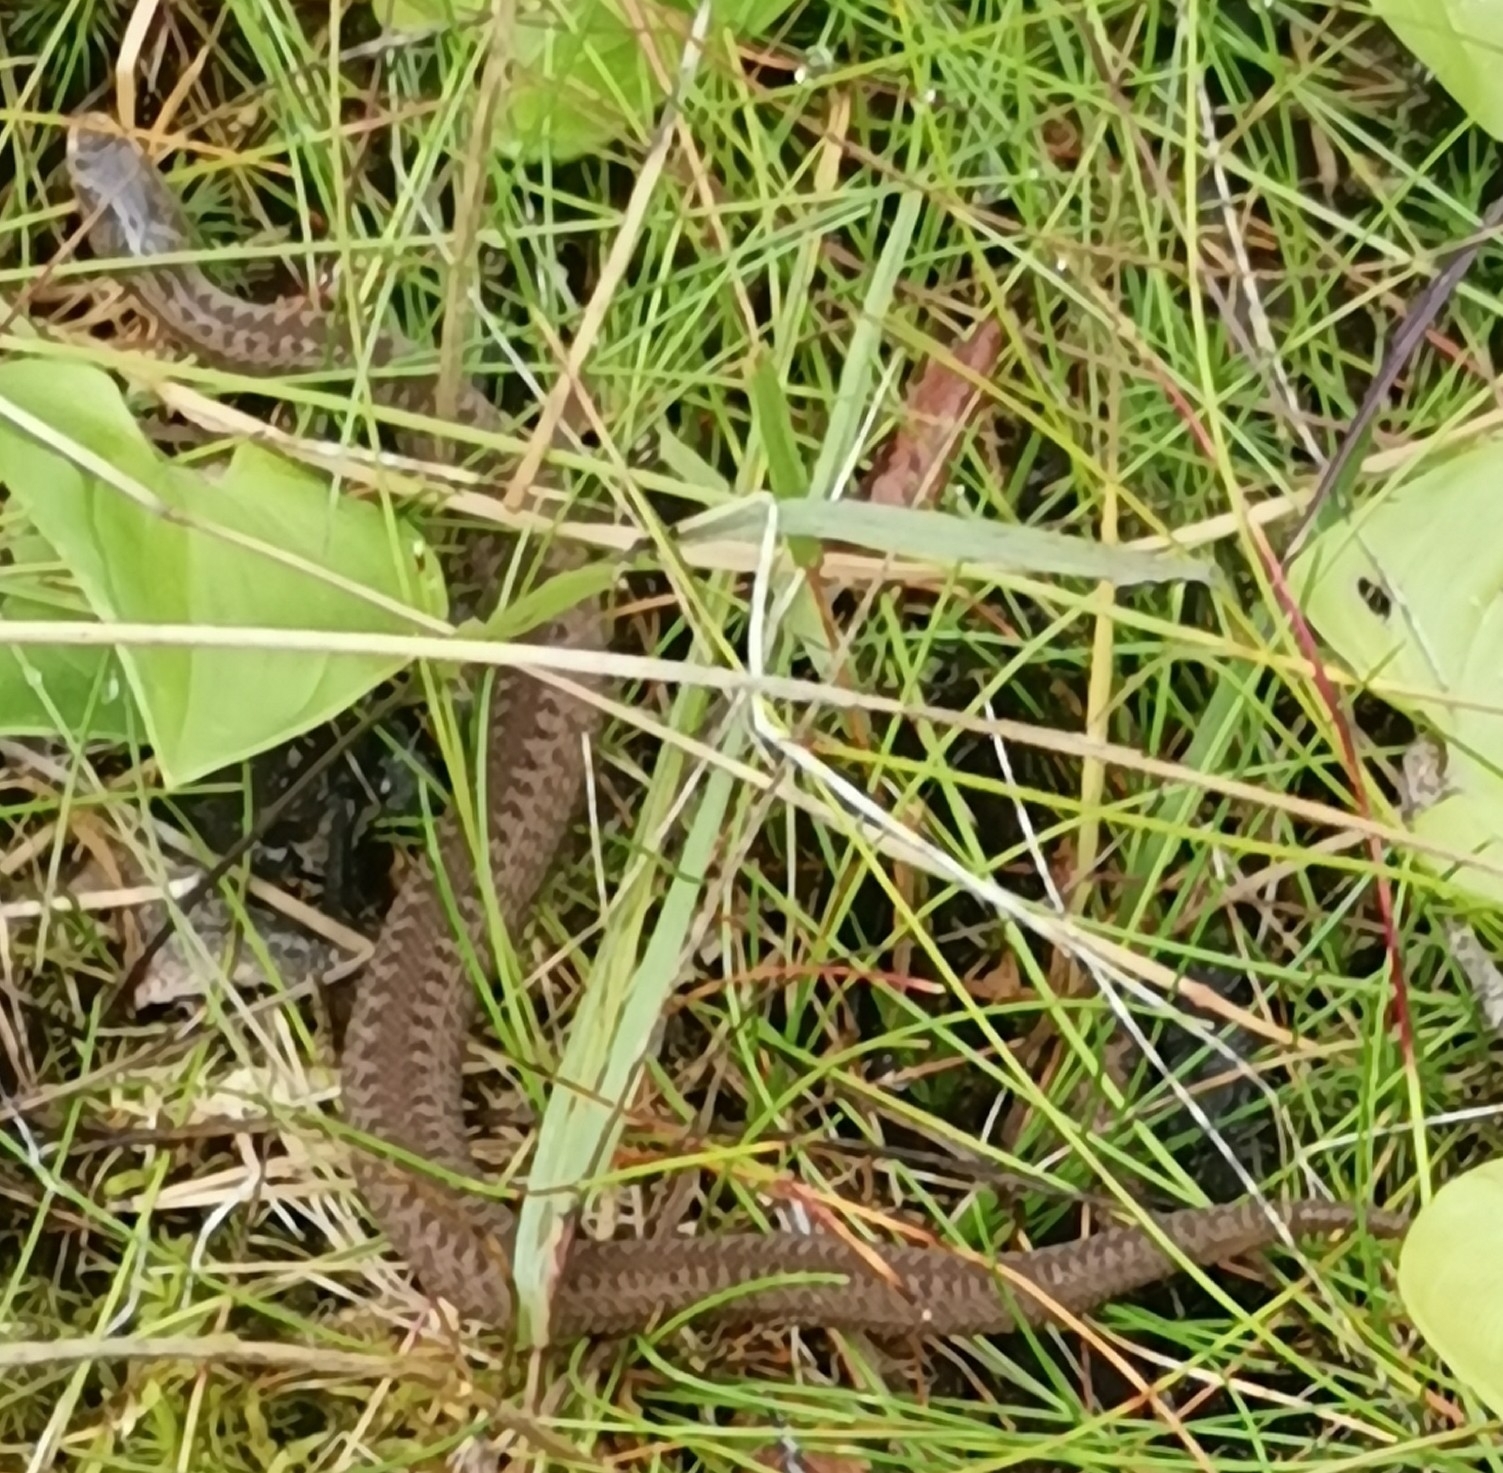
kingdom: Animalia
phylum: Chordata
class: Squamata
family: Viperidae
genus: Vipera
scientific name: Vipera berus
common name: Adder
